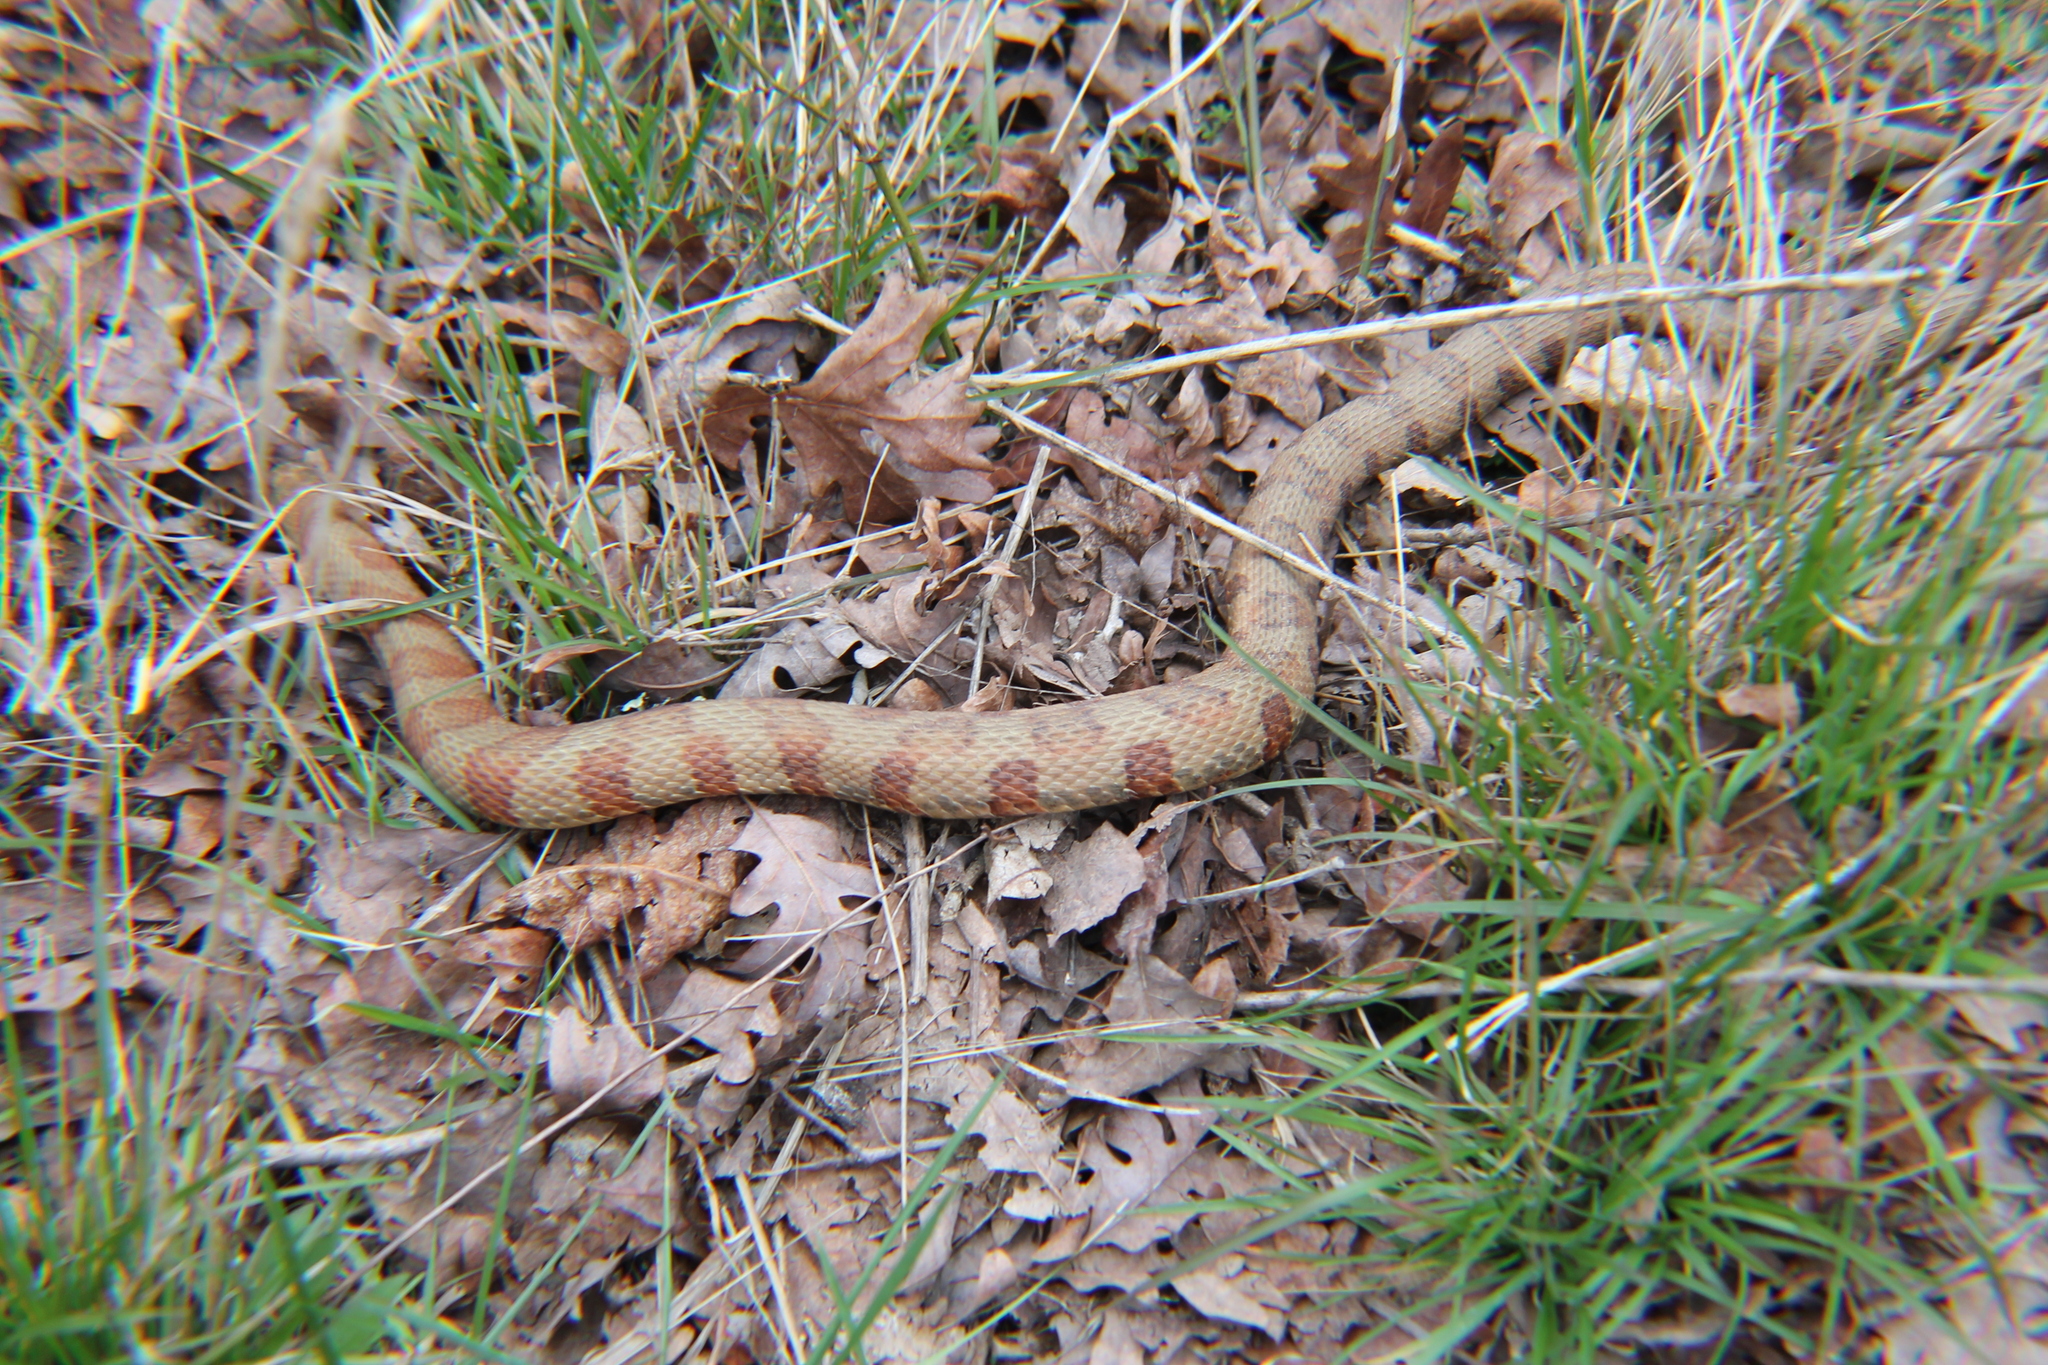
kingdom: Animalia
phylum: Chordata
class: Squamata
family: Colubridae
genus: Nerodia
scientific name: Nerodia sipedon
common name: Northern water snake
